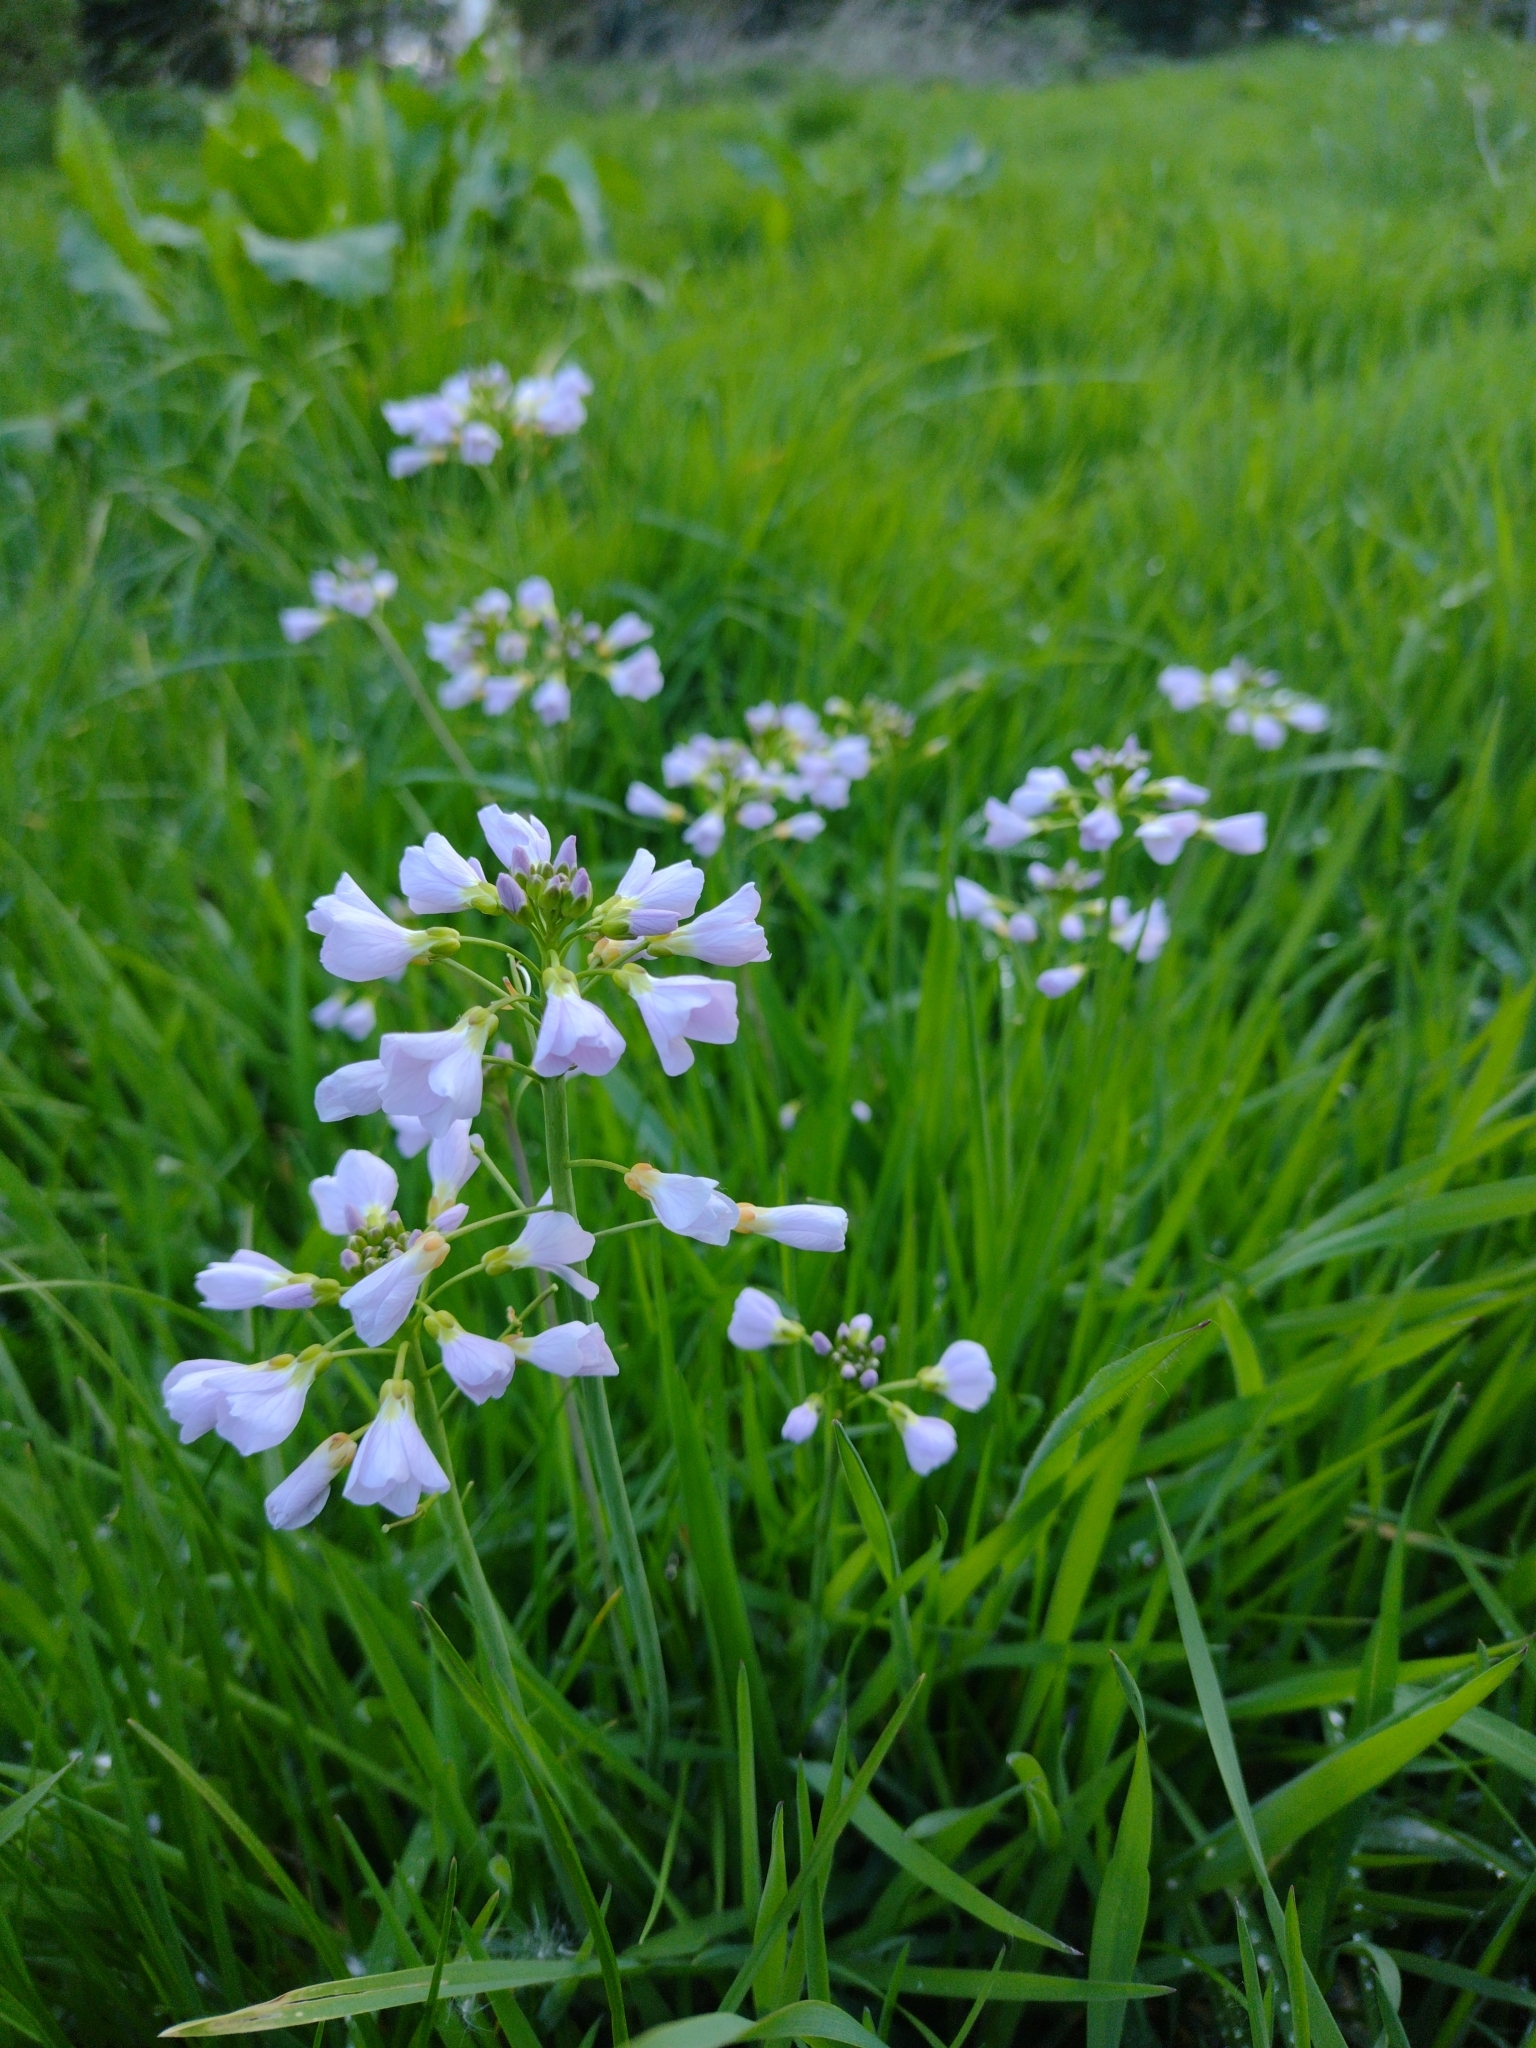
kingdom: Plantae
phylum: Tracheophyta
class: Magnoliopsida
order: Brassicales
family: Brassicaceae
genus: Cardamine
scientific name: Cardamine pratensis
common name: Cuckoo flower
